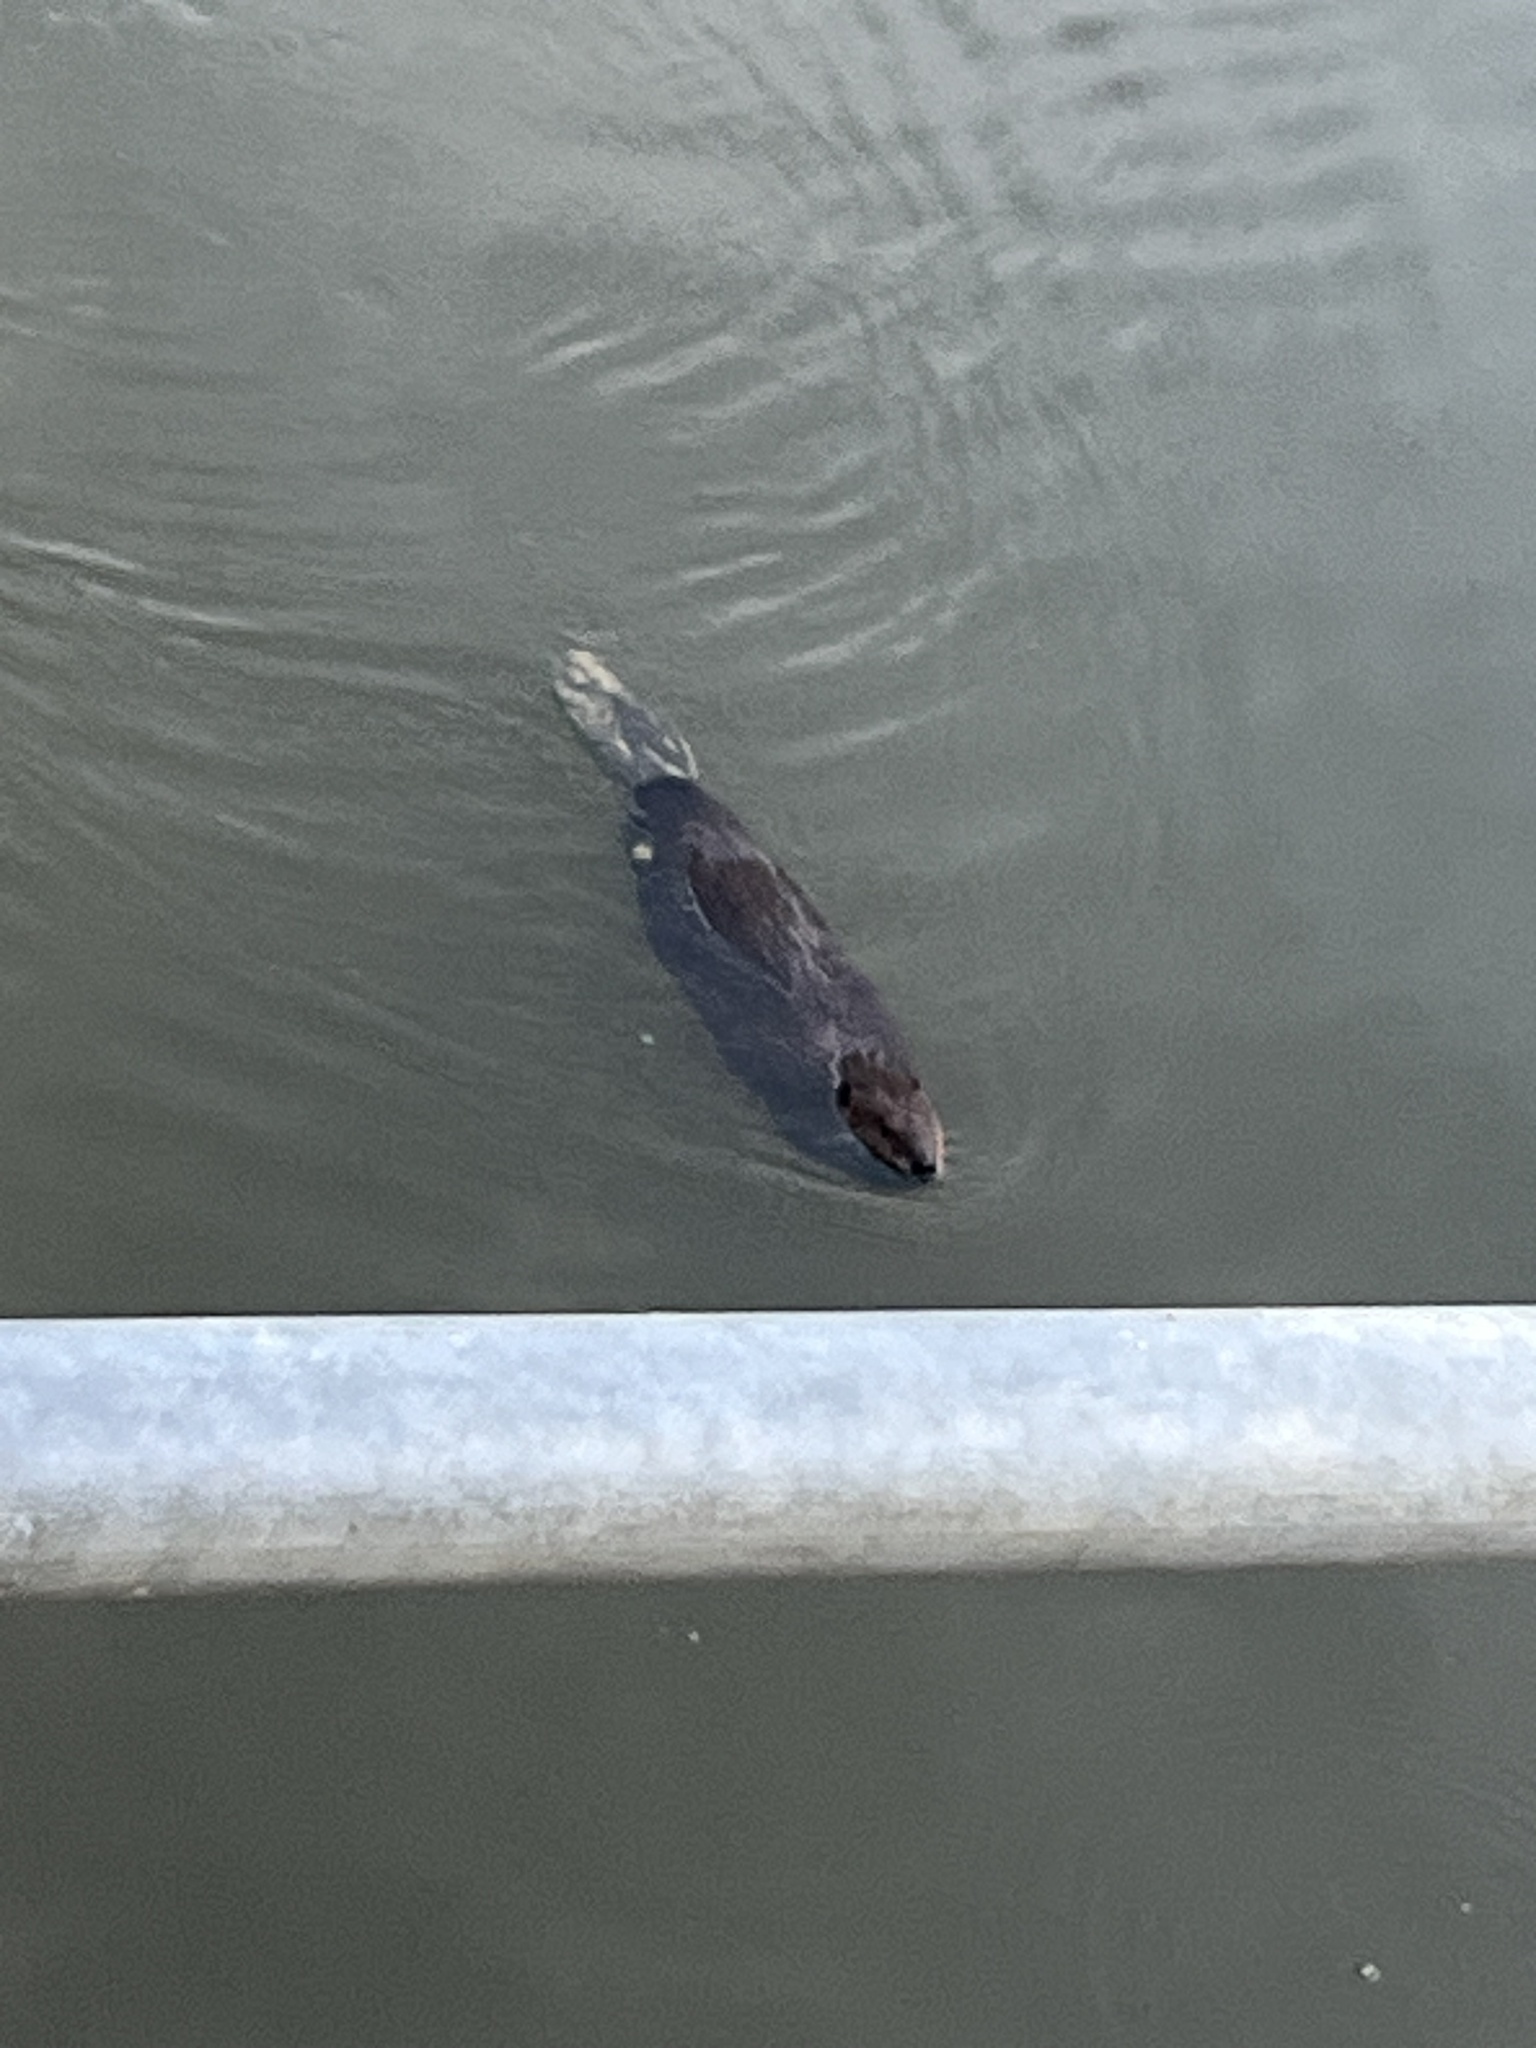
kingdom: Animalia
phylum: Chordata
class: Mammalia
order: Rodentia
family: Castoridae
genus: Castor
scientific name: Castor canadensis
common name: American beaver
